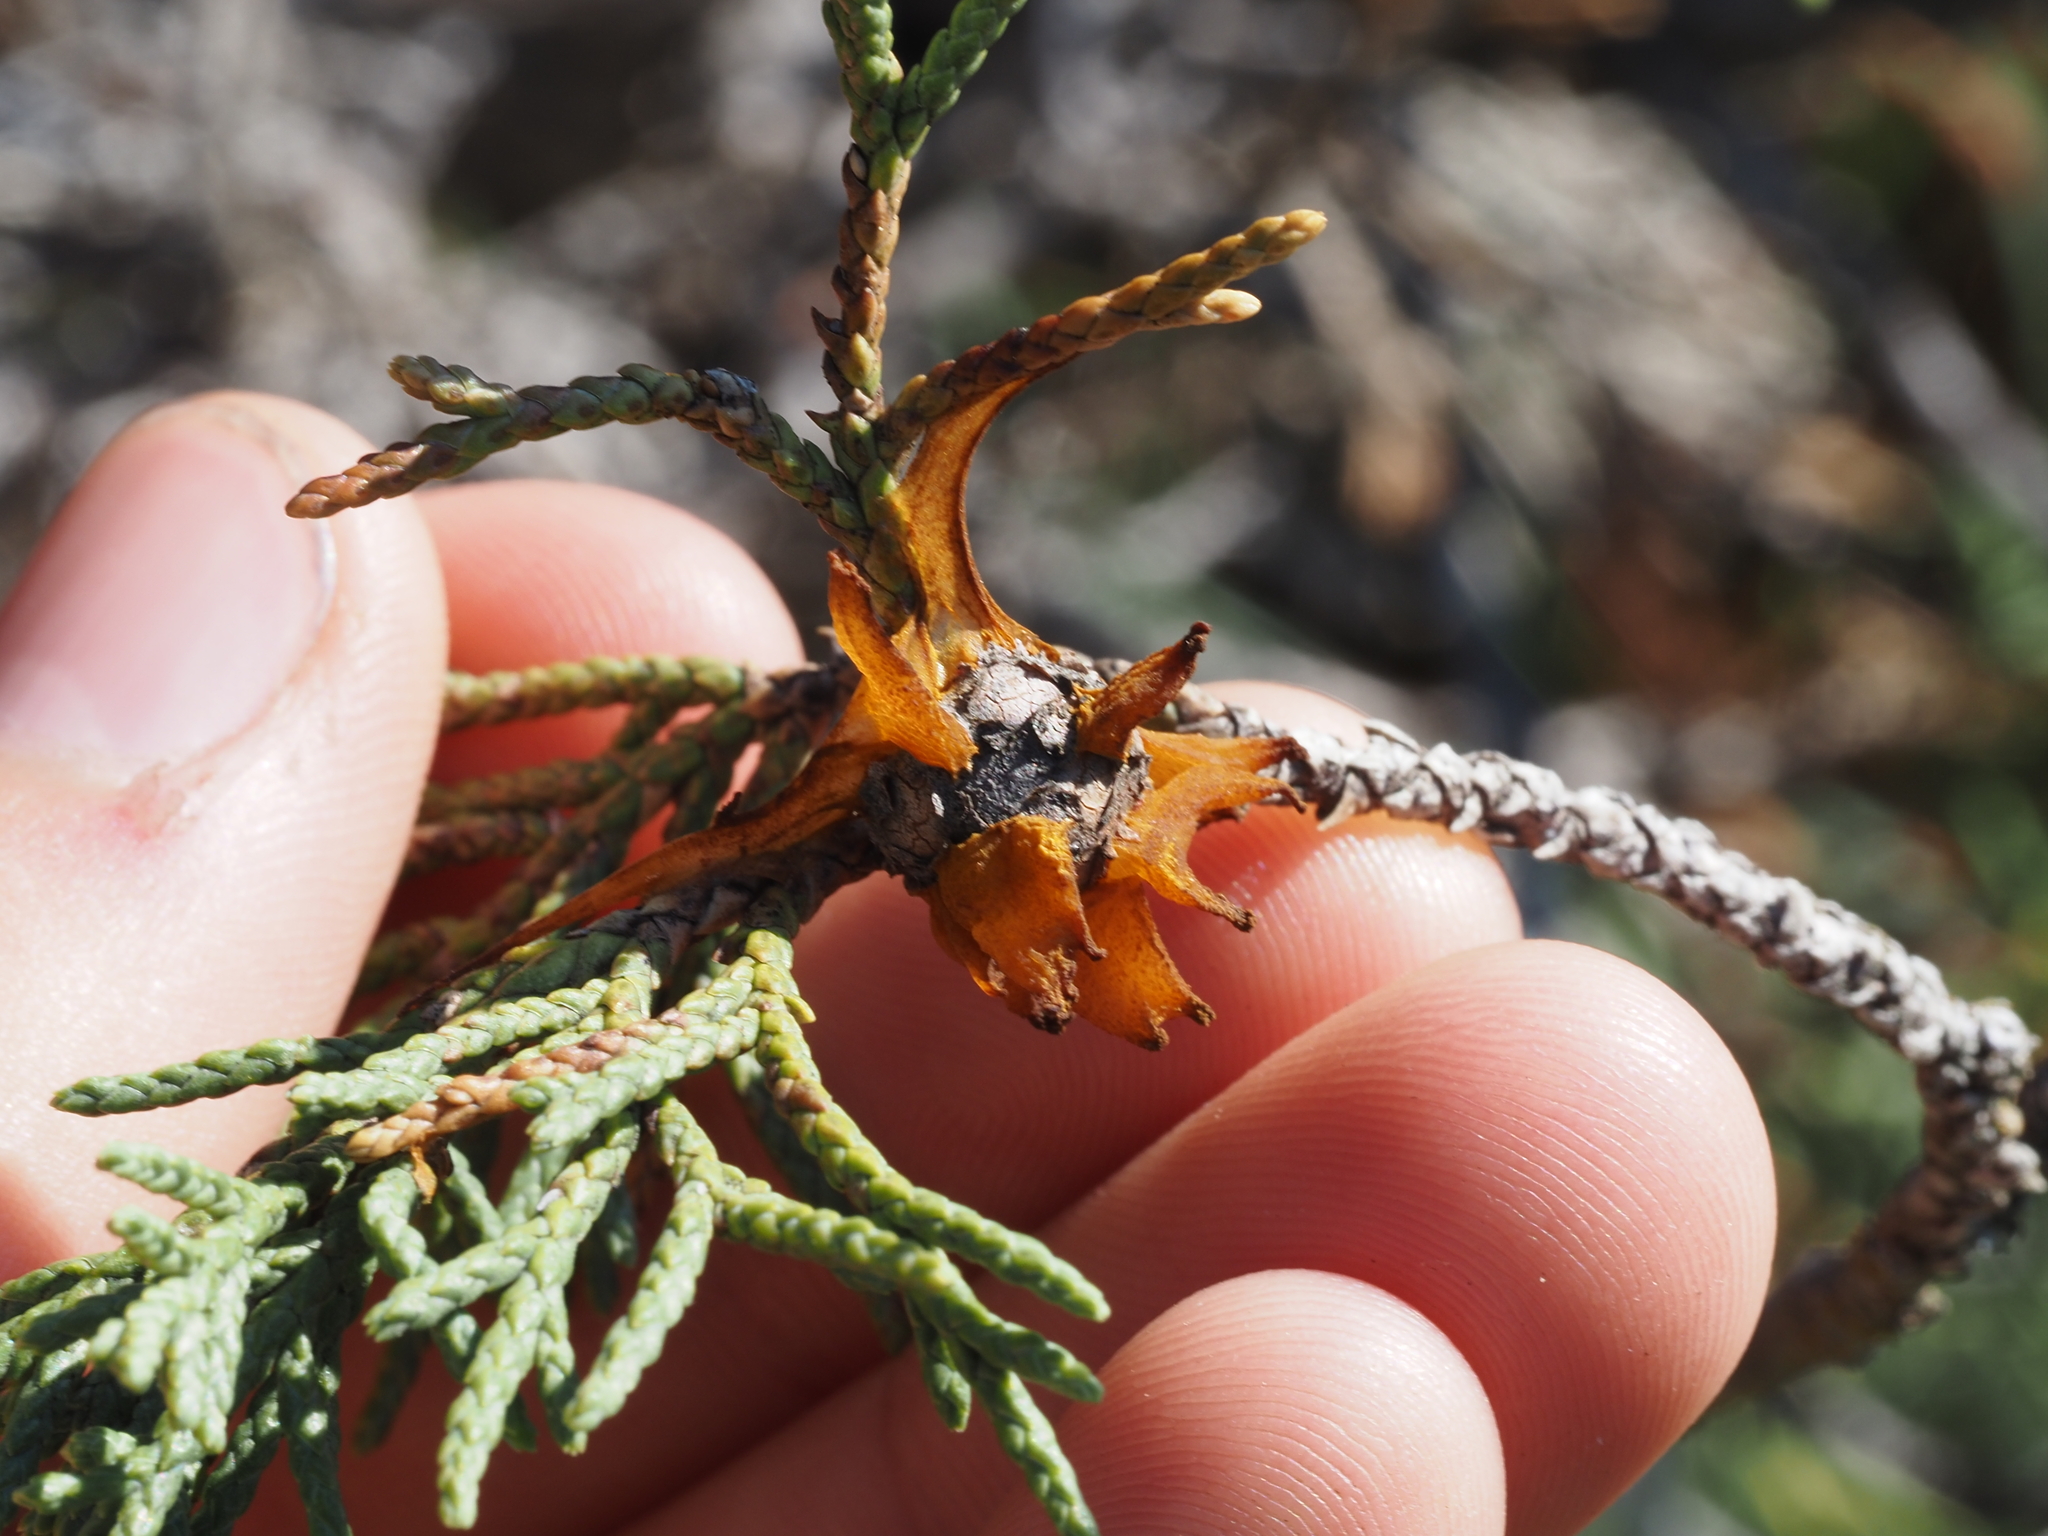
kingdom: Fungi
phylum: Basidiomycota
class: Pucciniomycetes
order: Pucciniales
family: Gymnosporangiaceae
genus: Gymnosporangium
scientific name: Gymnosporangium juniperi-virginianae
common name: Juniper-apple rust
